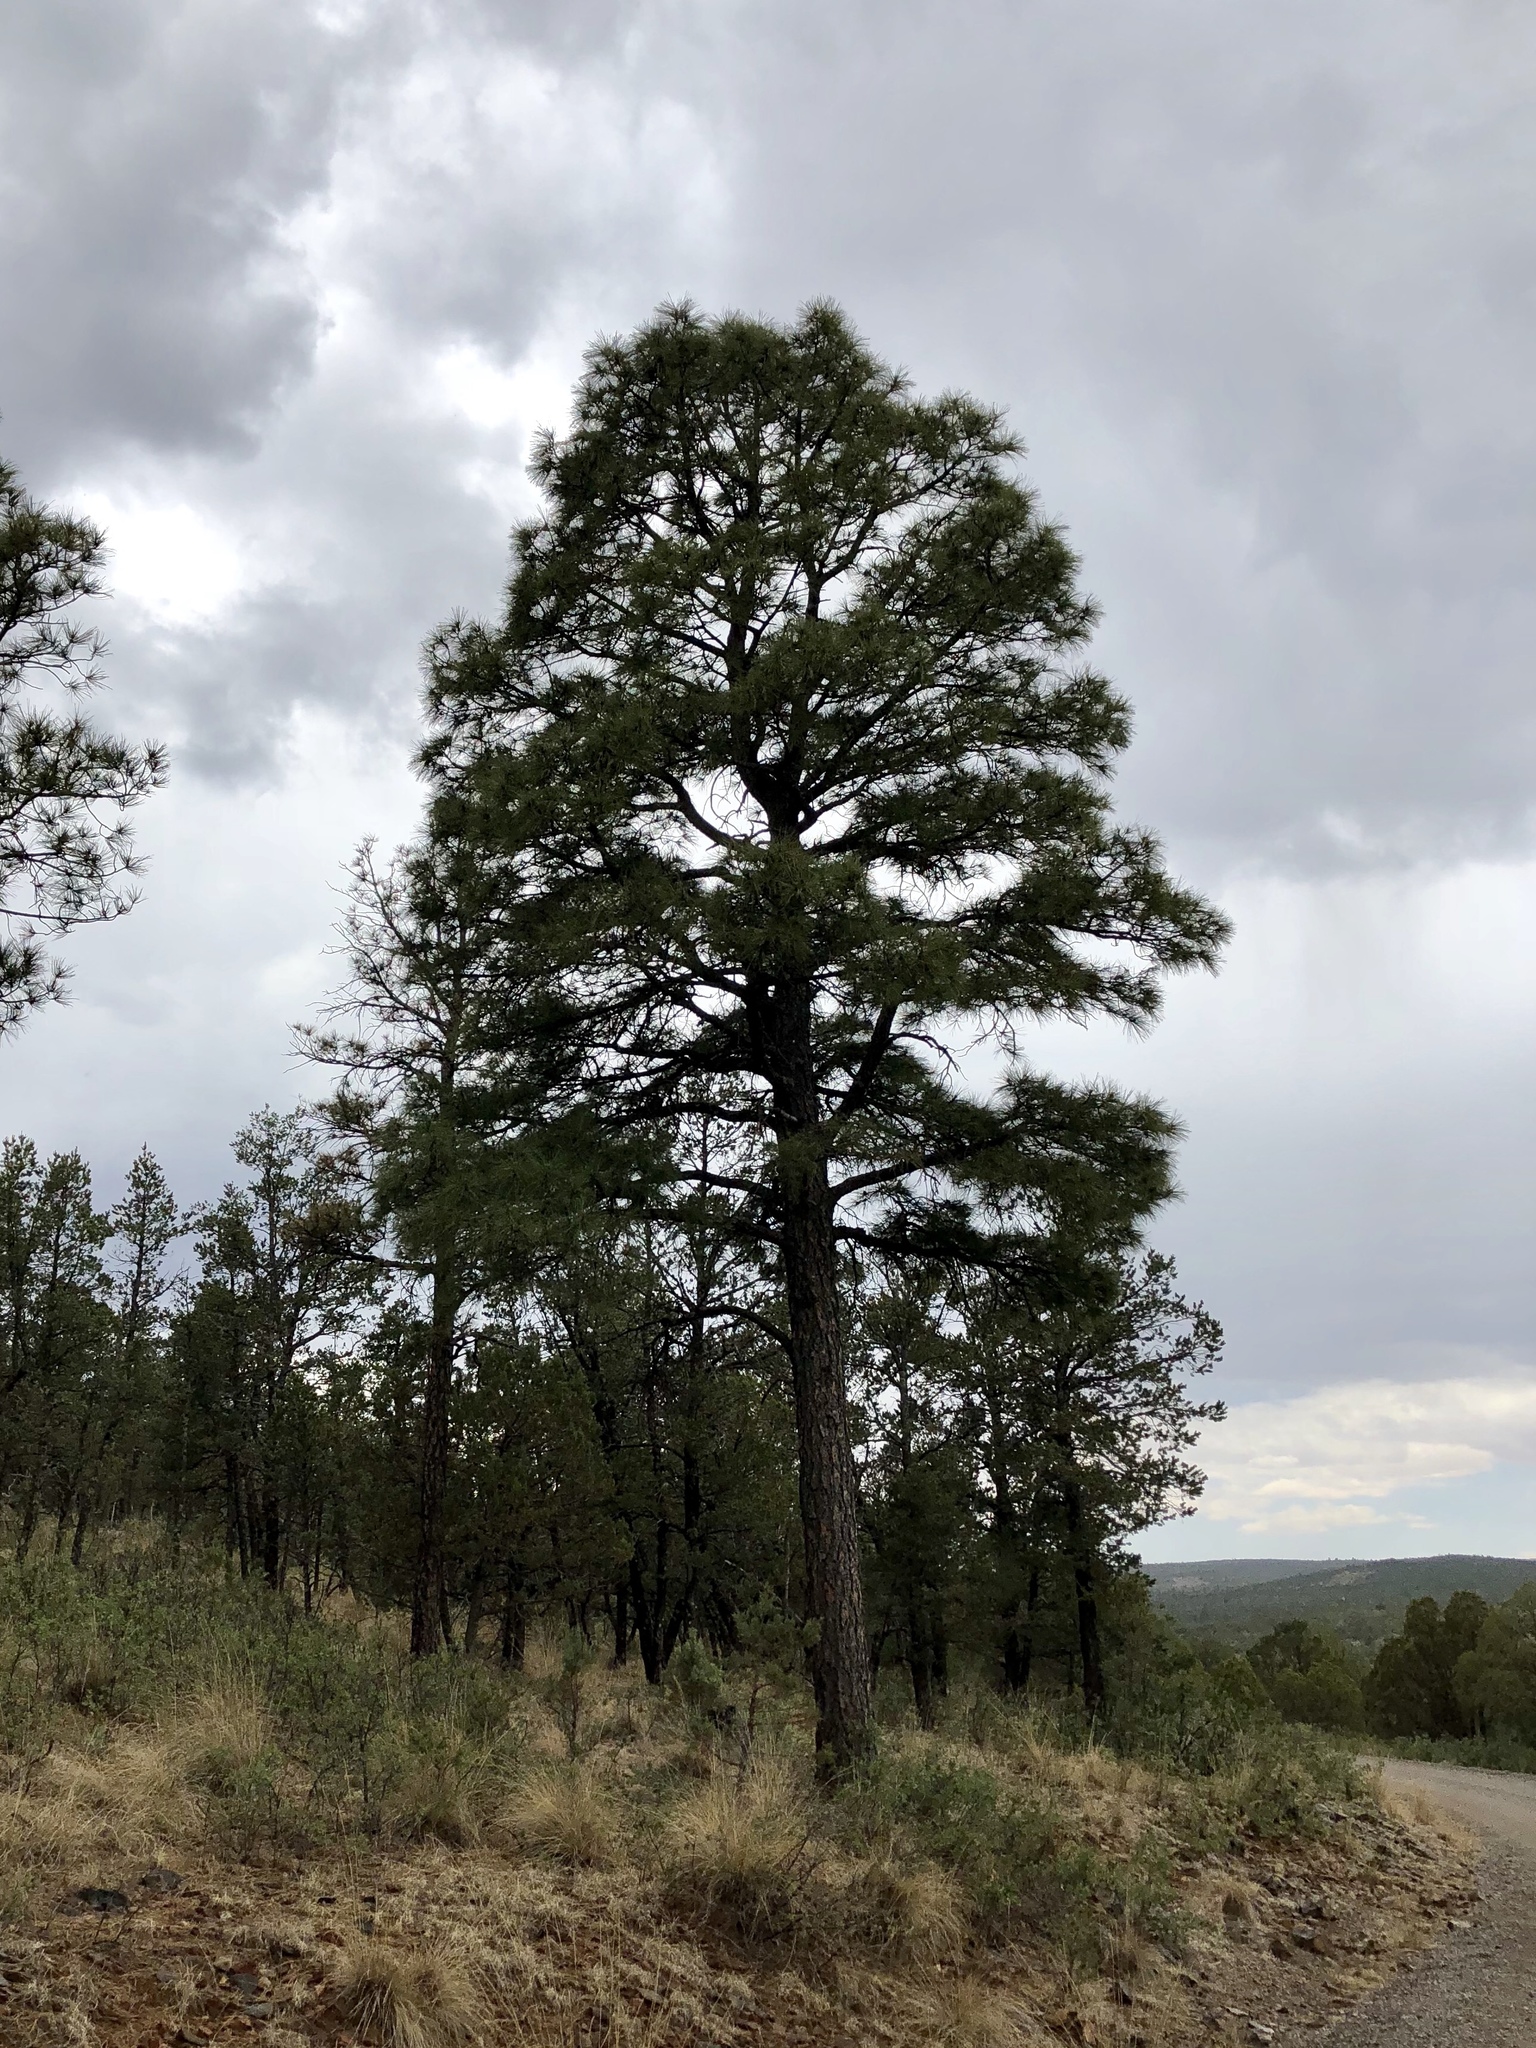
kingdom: Plantae
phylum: Tracheophyta
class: Pinopsida
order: Pinales
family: Pinaceae
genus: Pinus
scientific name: Pinus ponderosa
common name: Western yellow-pine
